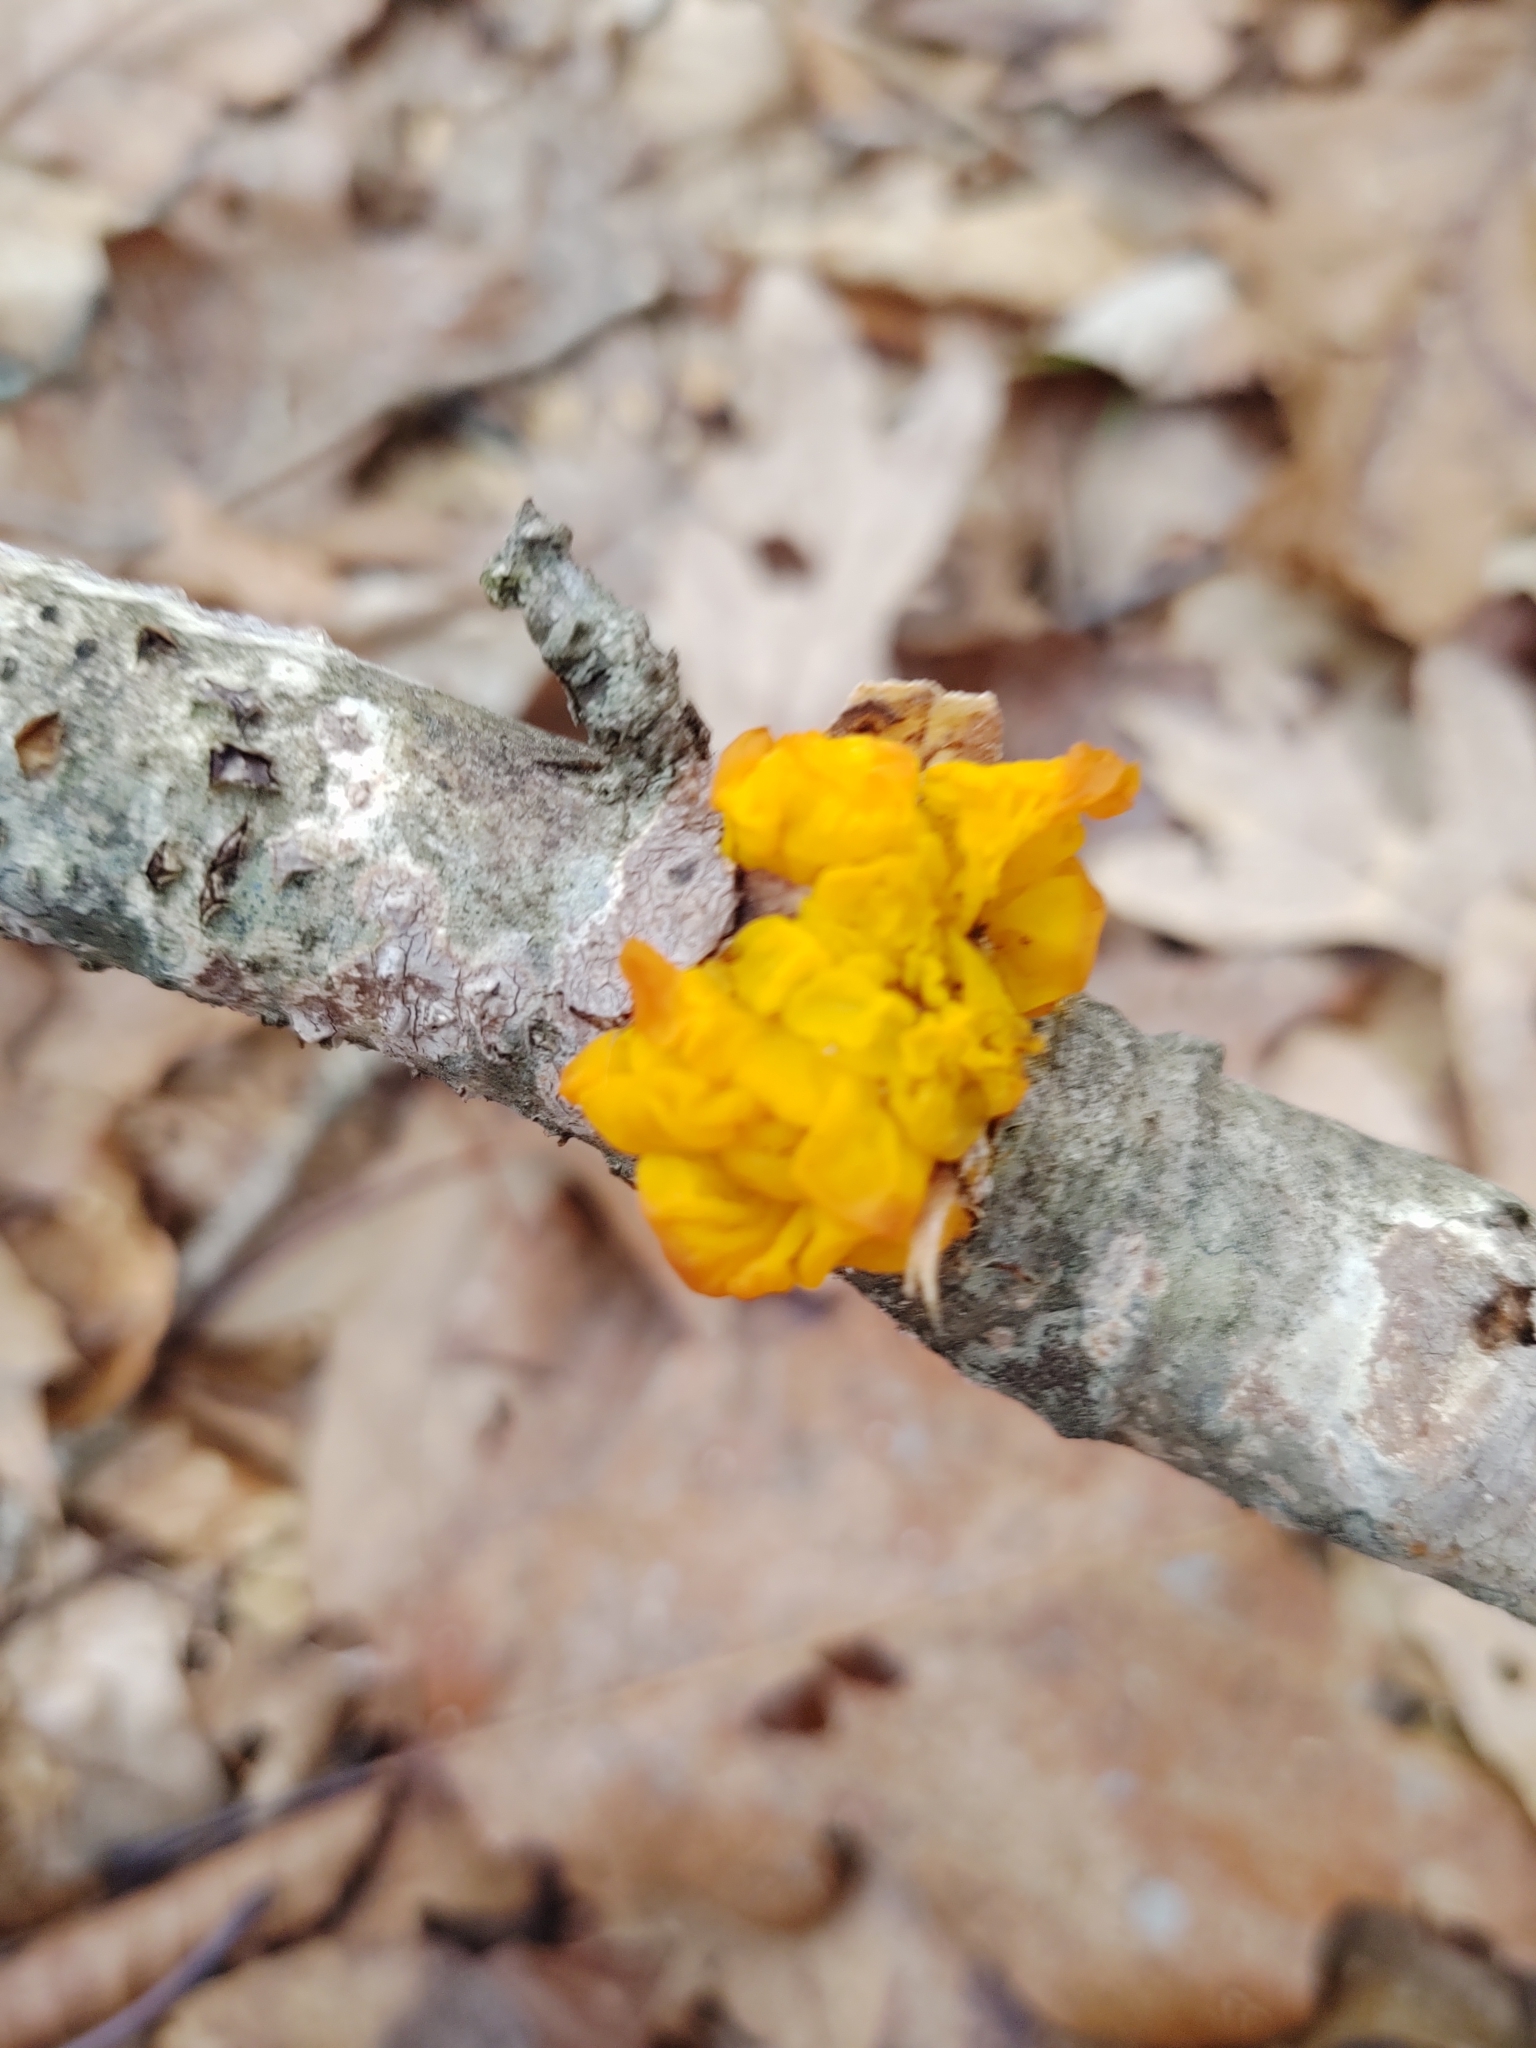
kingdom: Fungi
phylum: Basidiomycota
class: Tremellomycetes
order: Tremellales
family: Tremellaceae
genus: Tremella
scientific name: Tremella mesenterica
